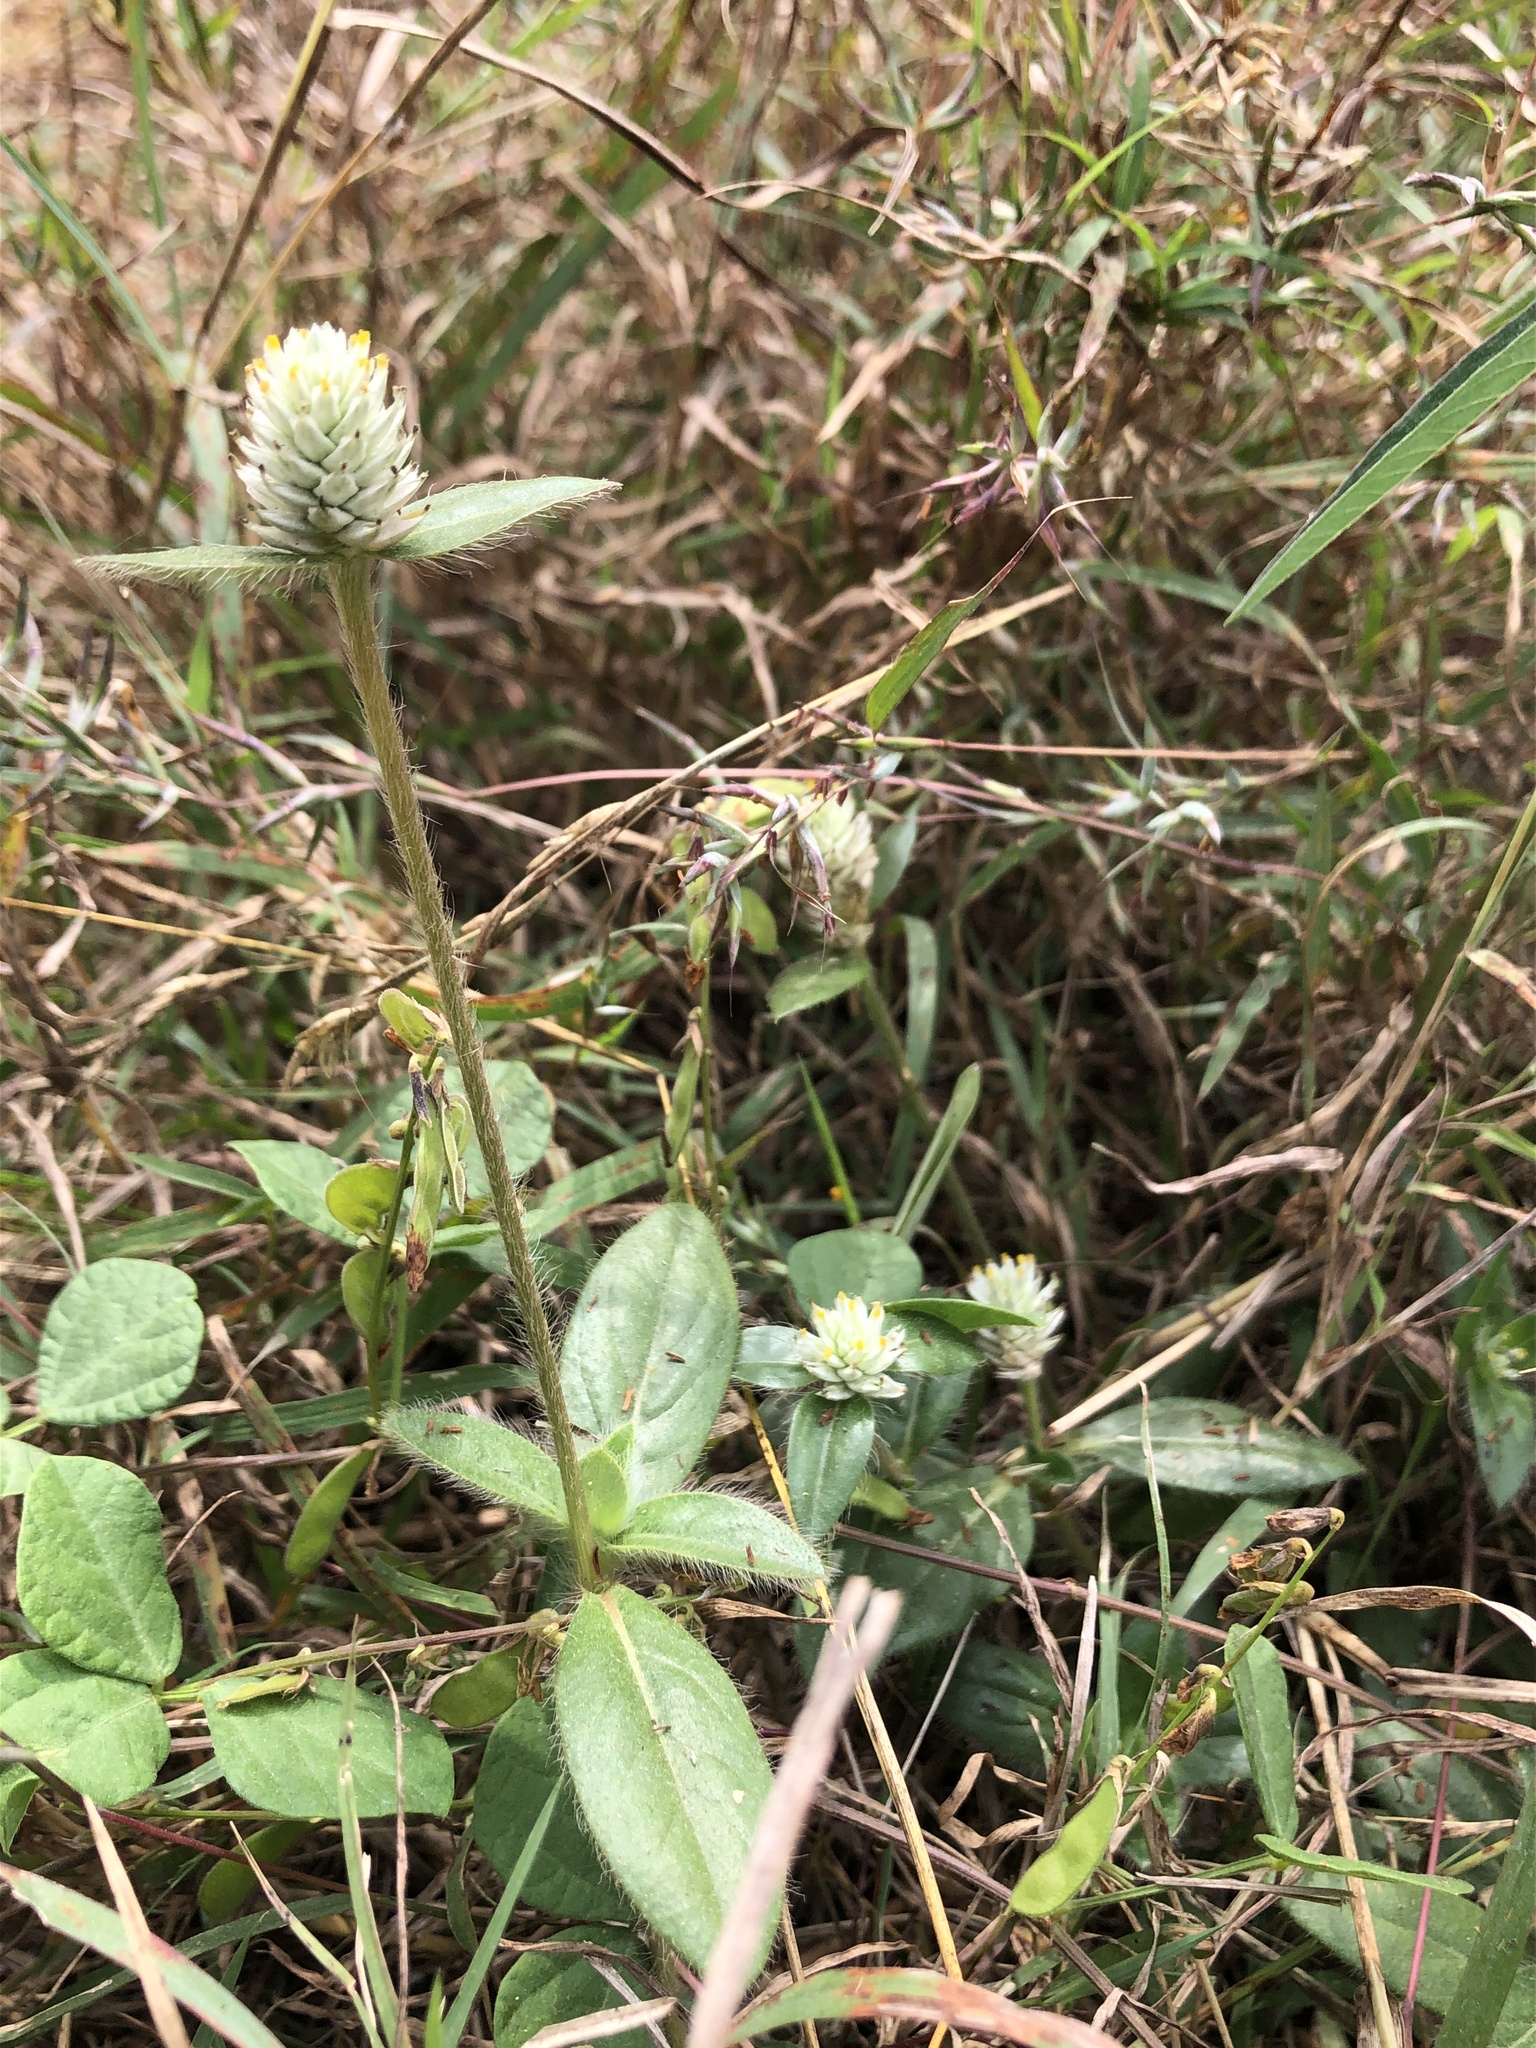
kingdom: Plantae
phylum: Tracheophyta
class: Magnoliopsida
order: Caryophyllales
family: Amaranthaceae
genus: Gomphrena
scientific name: Gomphrena celosioides
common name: Gomphrena-weed
